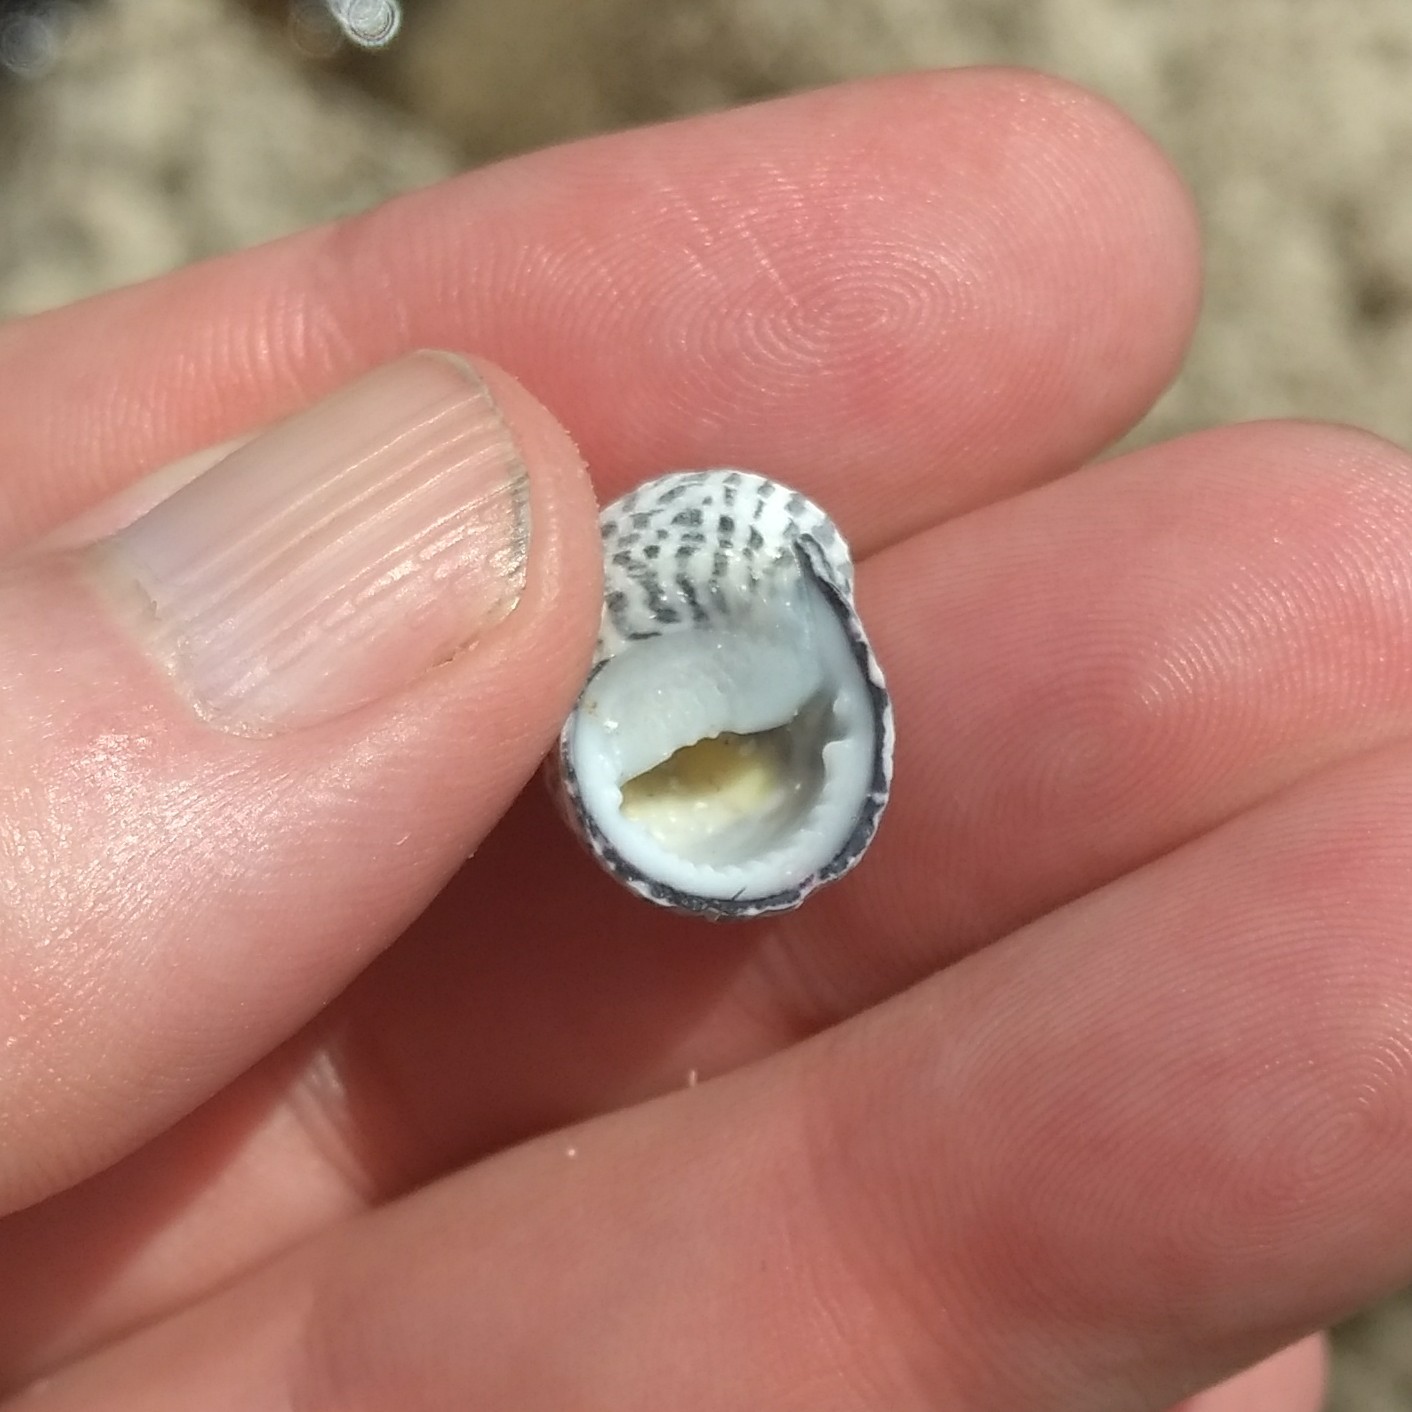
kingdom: Animalia
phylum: Mollusca
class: Gastropoda
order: Cycloneritida
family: Neritidae
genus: Nerita
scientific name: Nerita tessellata
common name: Checkered nerite
